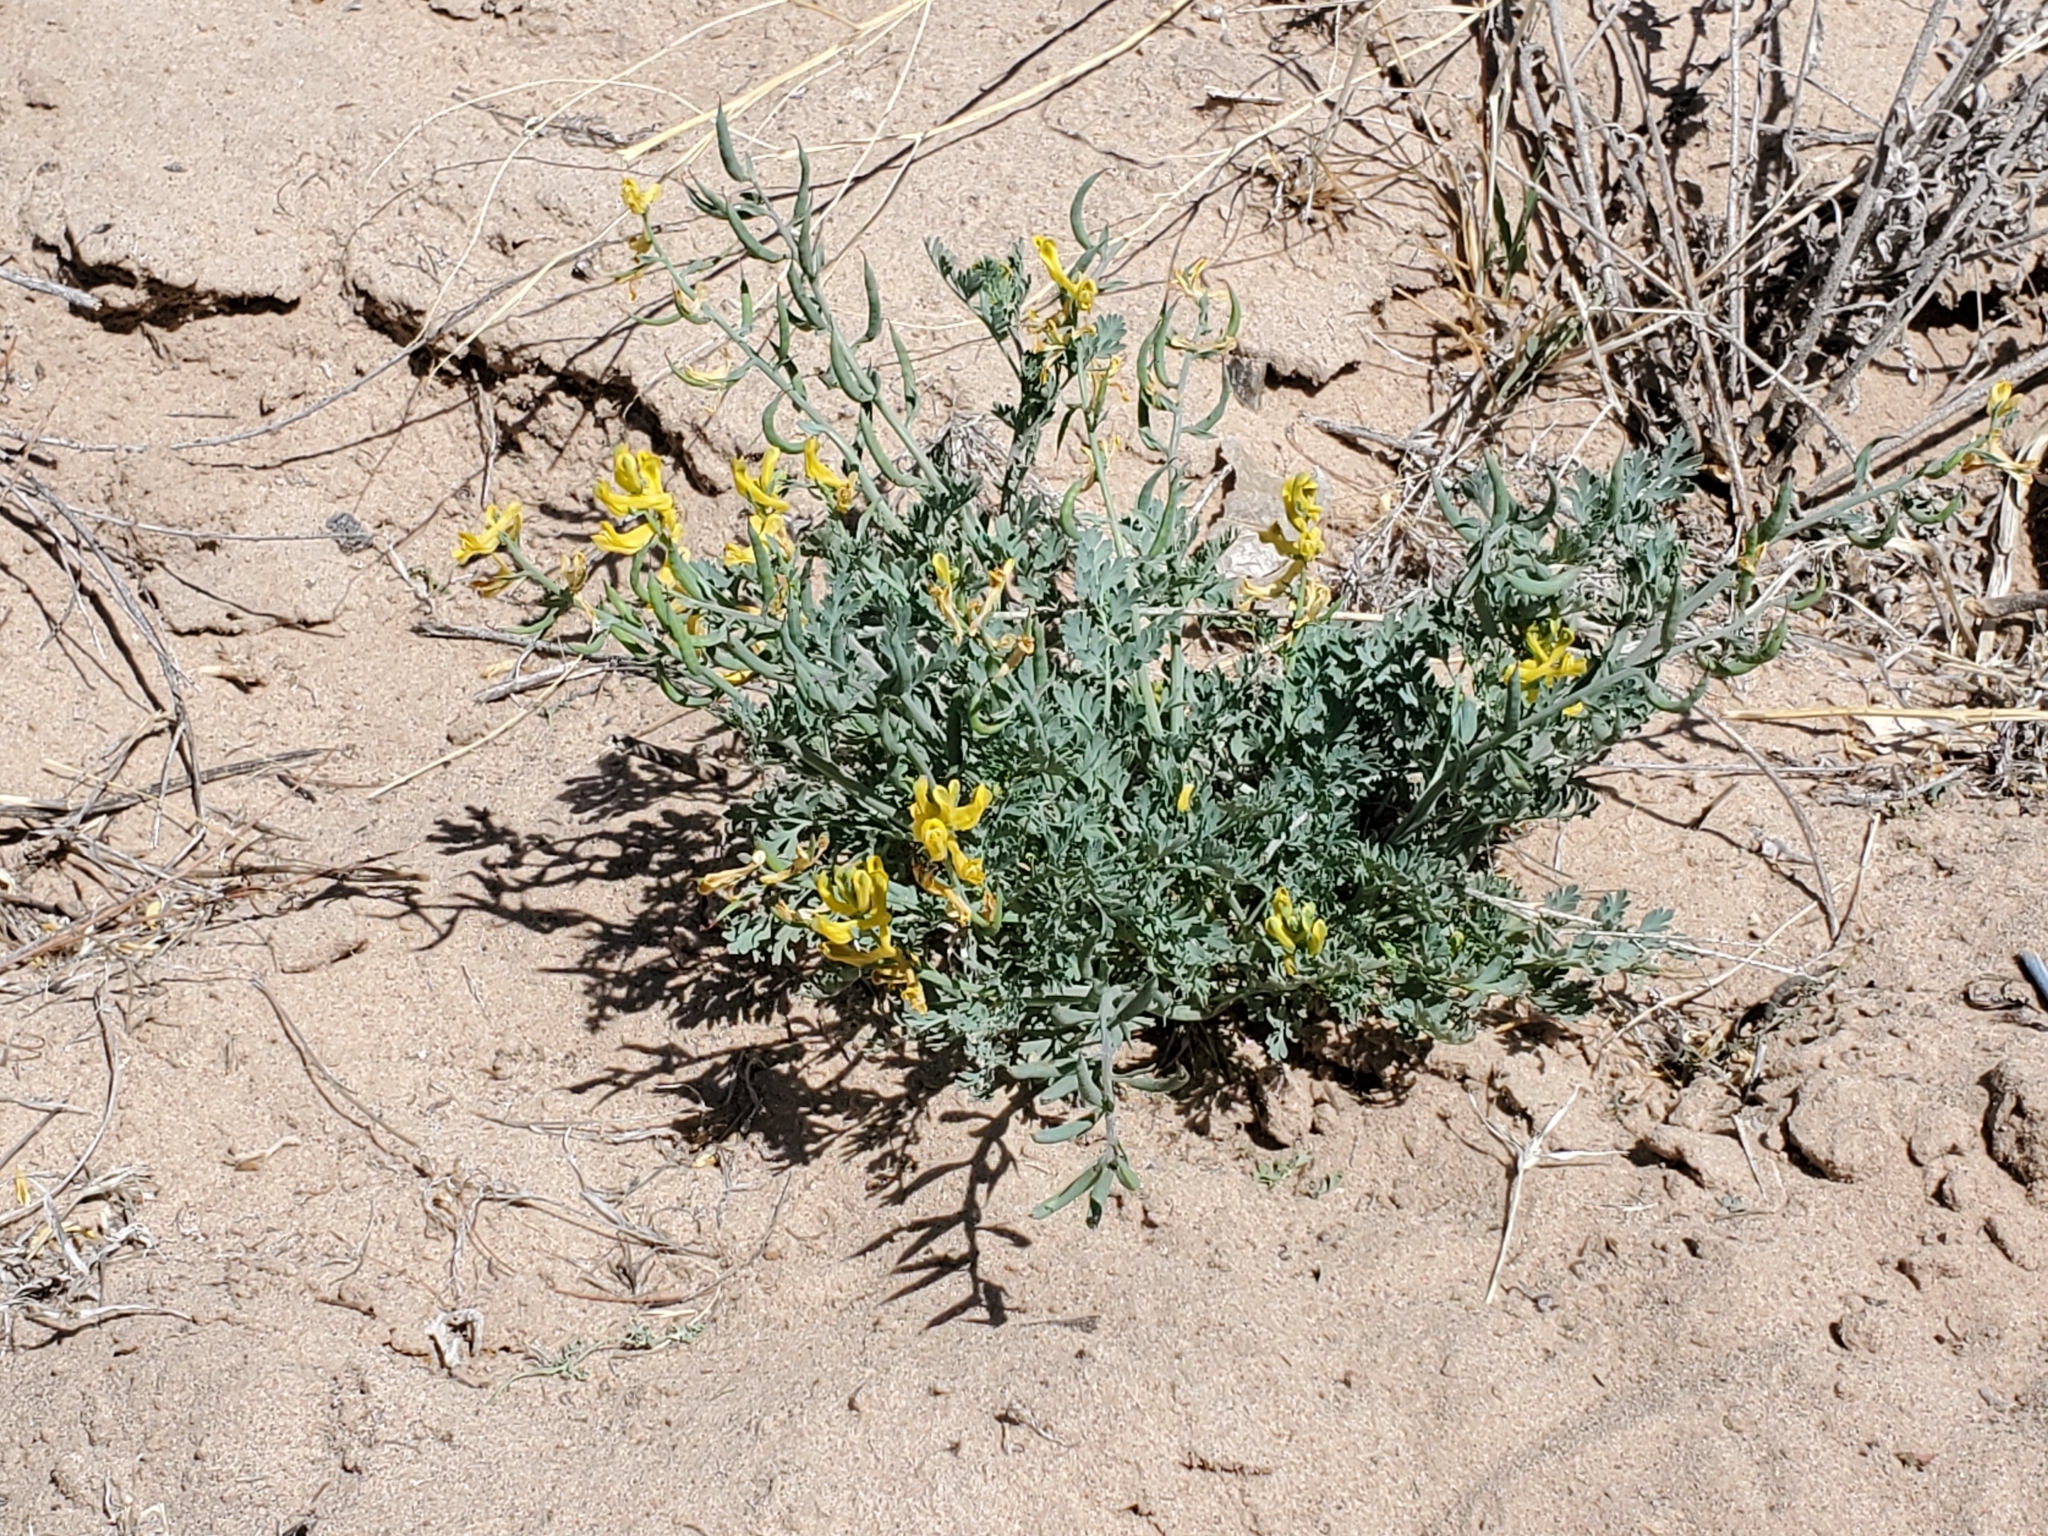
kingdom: Plantae
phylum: Tracheophyta
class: Magnoliopsida
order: Ranunculales
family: Papaveraceae
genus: Corydalis
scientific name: Corydalis aurea
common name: Golden corydalis
